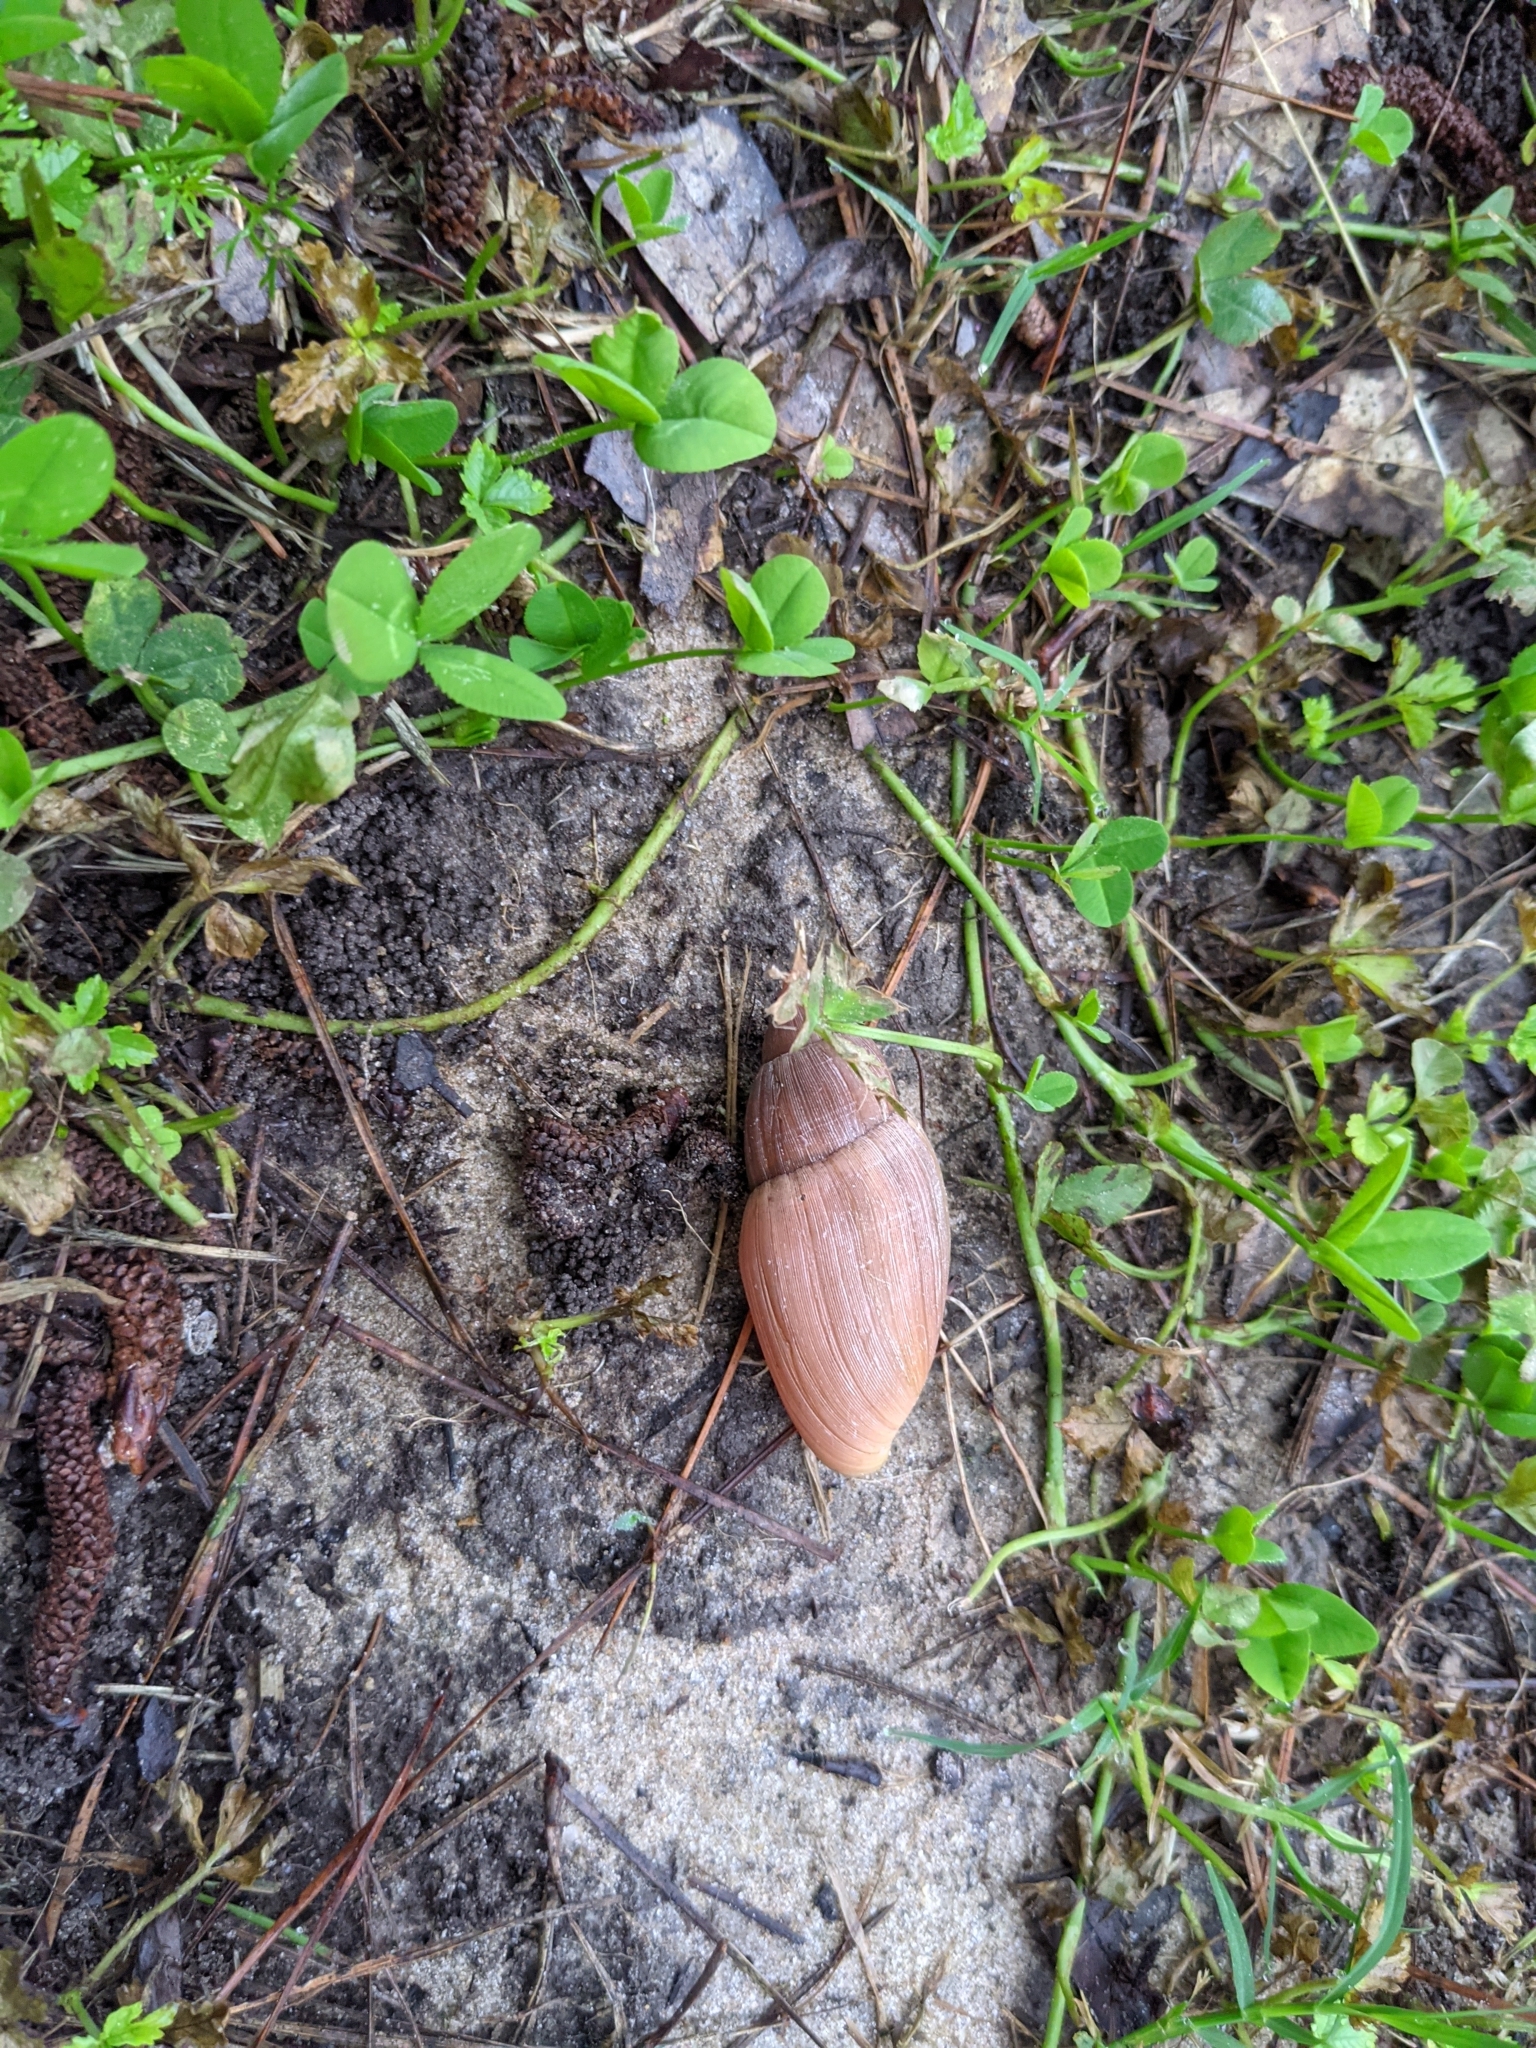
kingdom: Animalia
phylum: Mollusca
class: Gastropoda
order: Stylommatophora
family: Spiraxidae
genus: Euglandina
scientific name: Euglandina rosea
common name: Rosy wolfsnail
